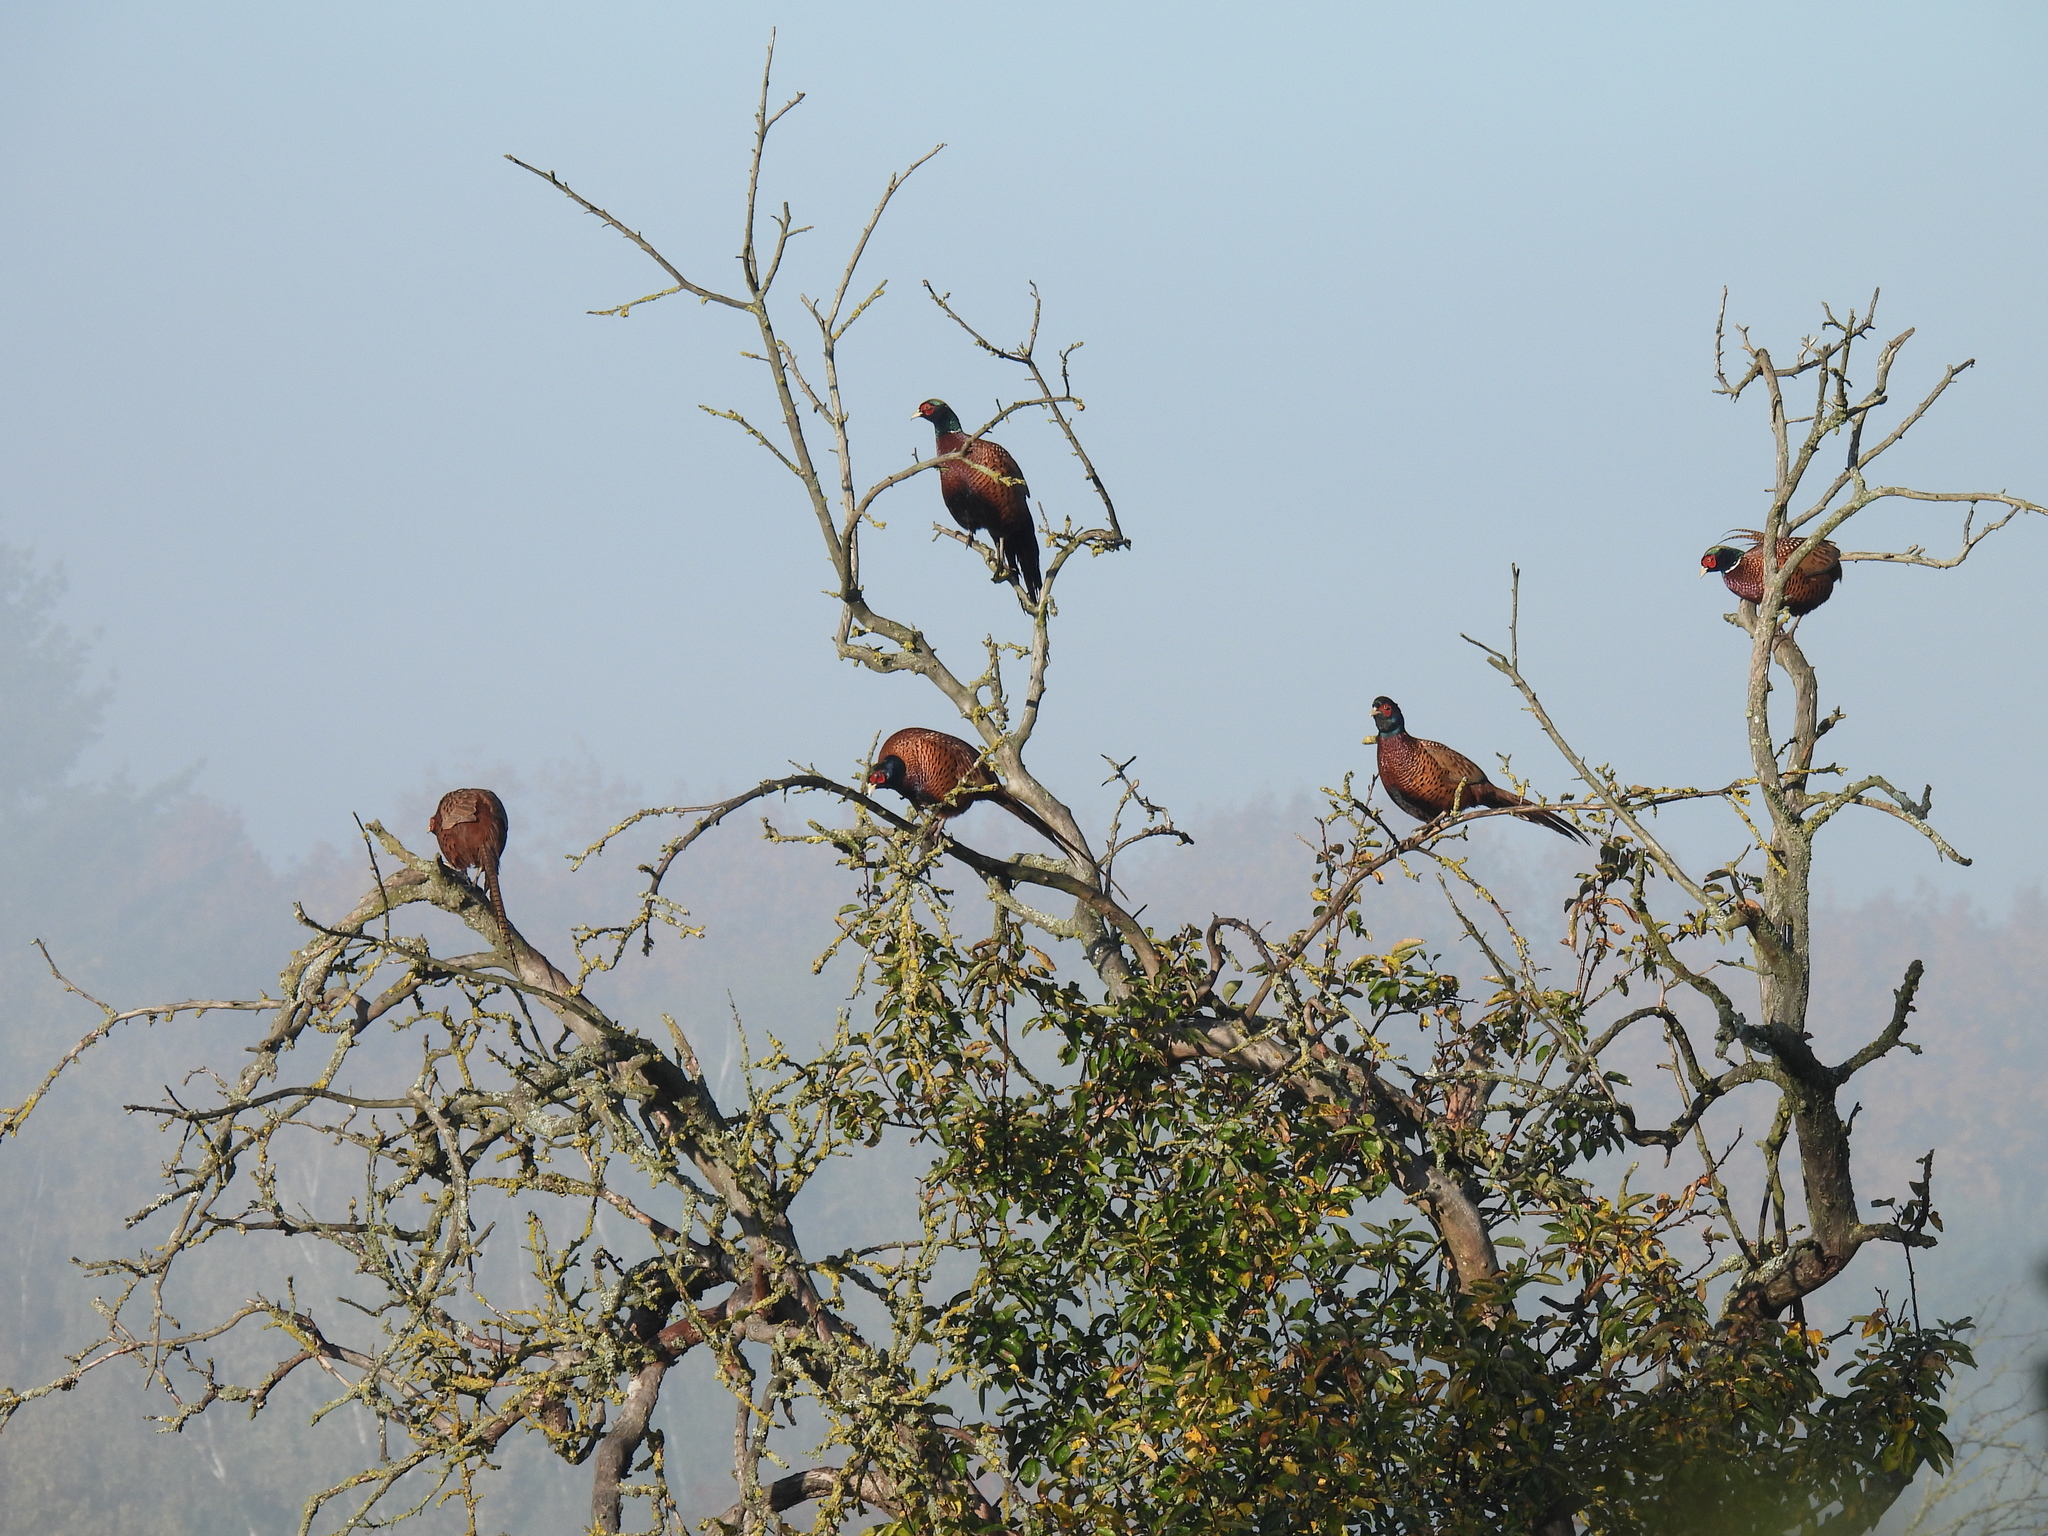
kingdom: Animalia
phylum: Chordata
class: Aves
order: Galliformes
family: Phasianidae
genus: Phasianus
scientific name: Phasianus colchicus
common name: Common pheasant
